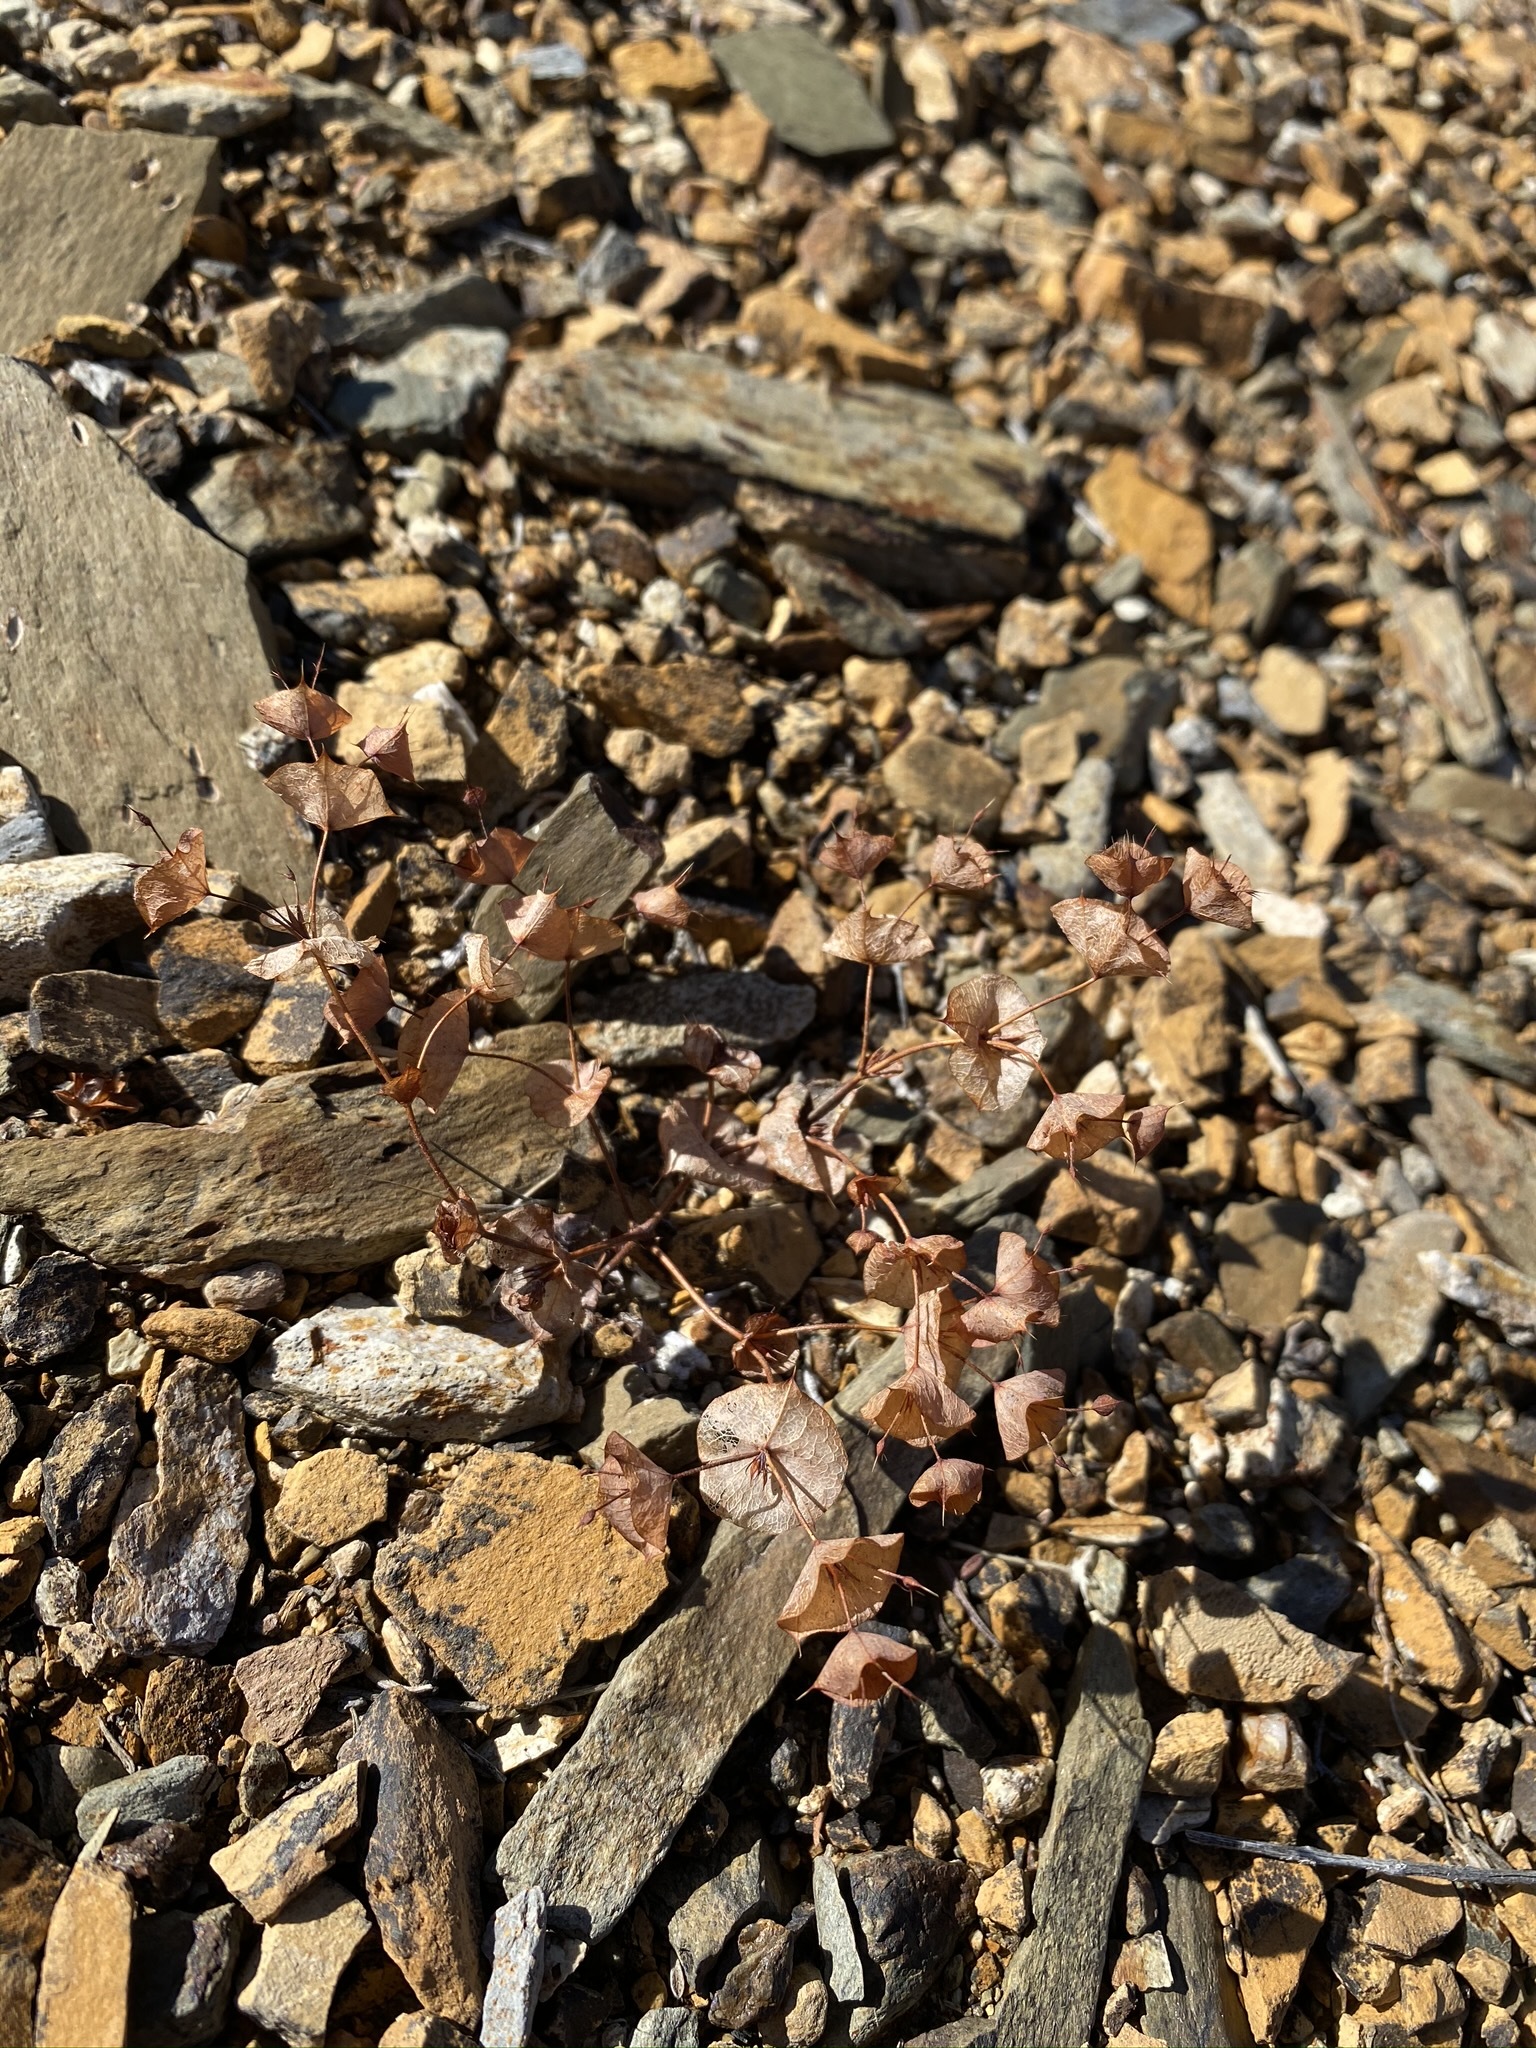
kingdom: Plantae
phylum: Tracheophyta
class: Magnoliopsida
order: Caryophyllales
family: Polygonaceae
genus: Oxytheca
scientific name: Oxytheca perfoliata
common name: Round-leaf puncturebract
